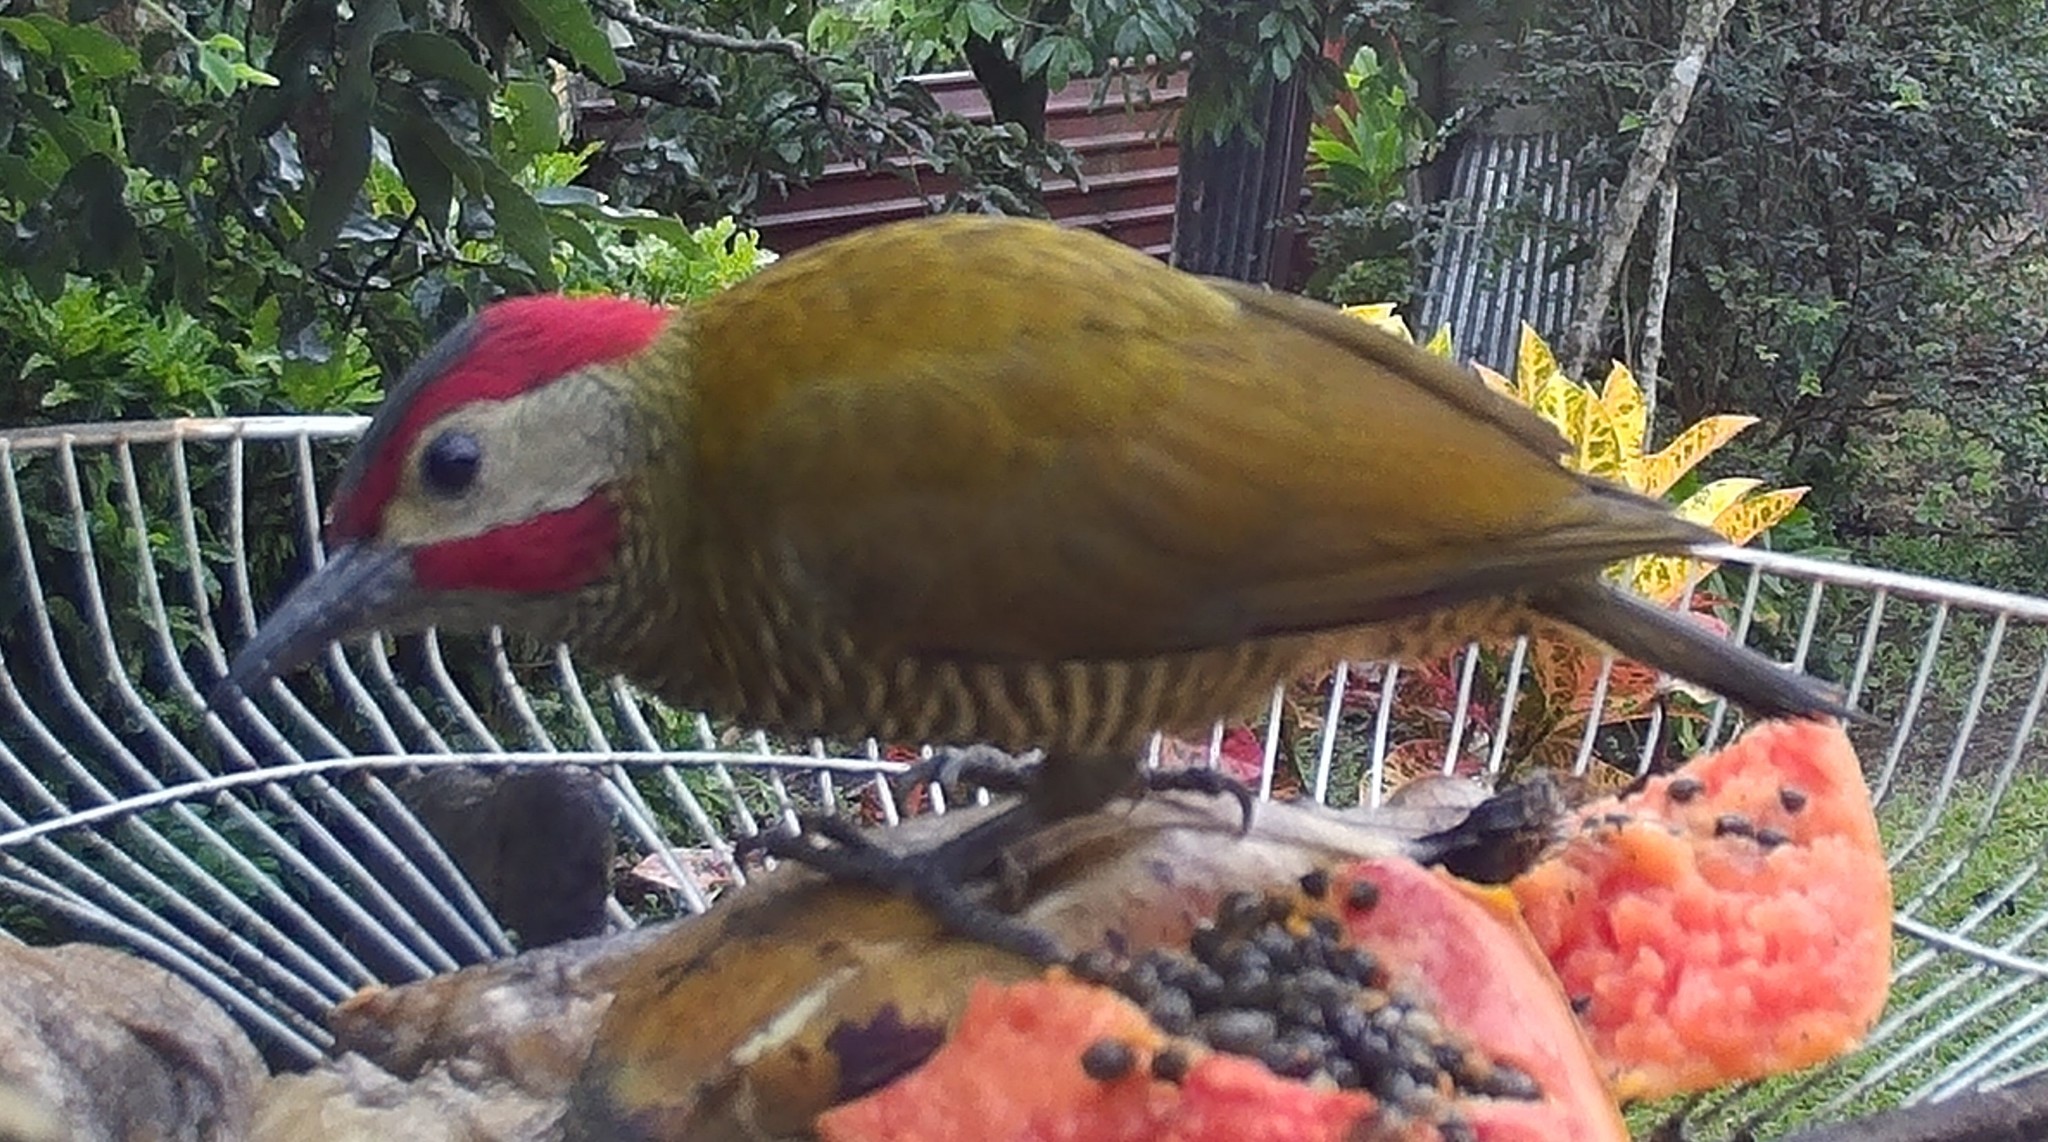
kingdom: Animalia
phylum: Chordata
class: Aves
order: Piciformes
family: Picidae
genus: Colaptes
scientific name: Colaptes rubiginosus
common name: Golden-olive woodpecker
